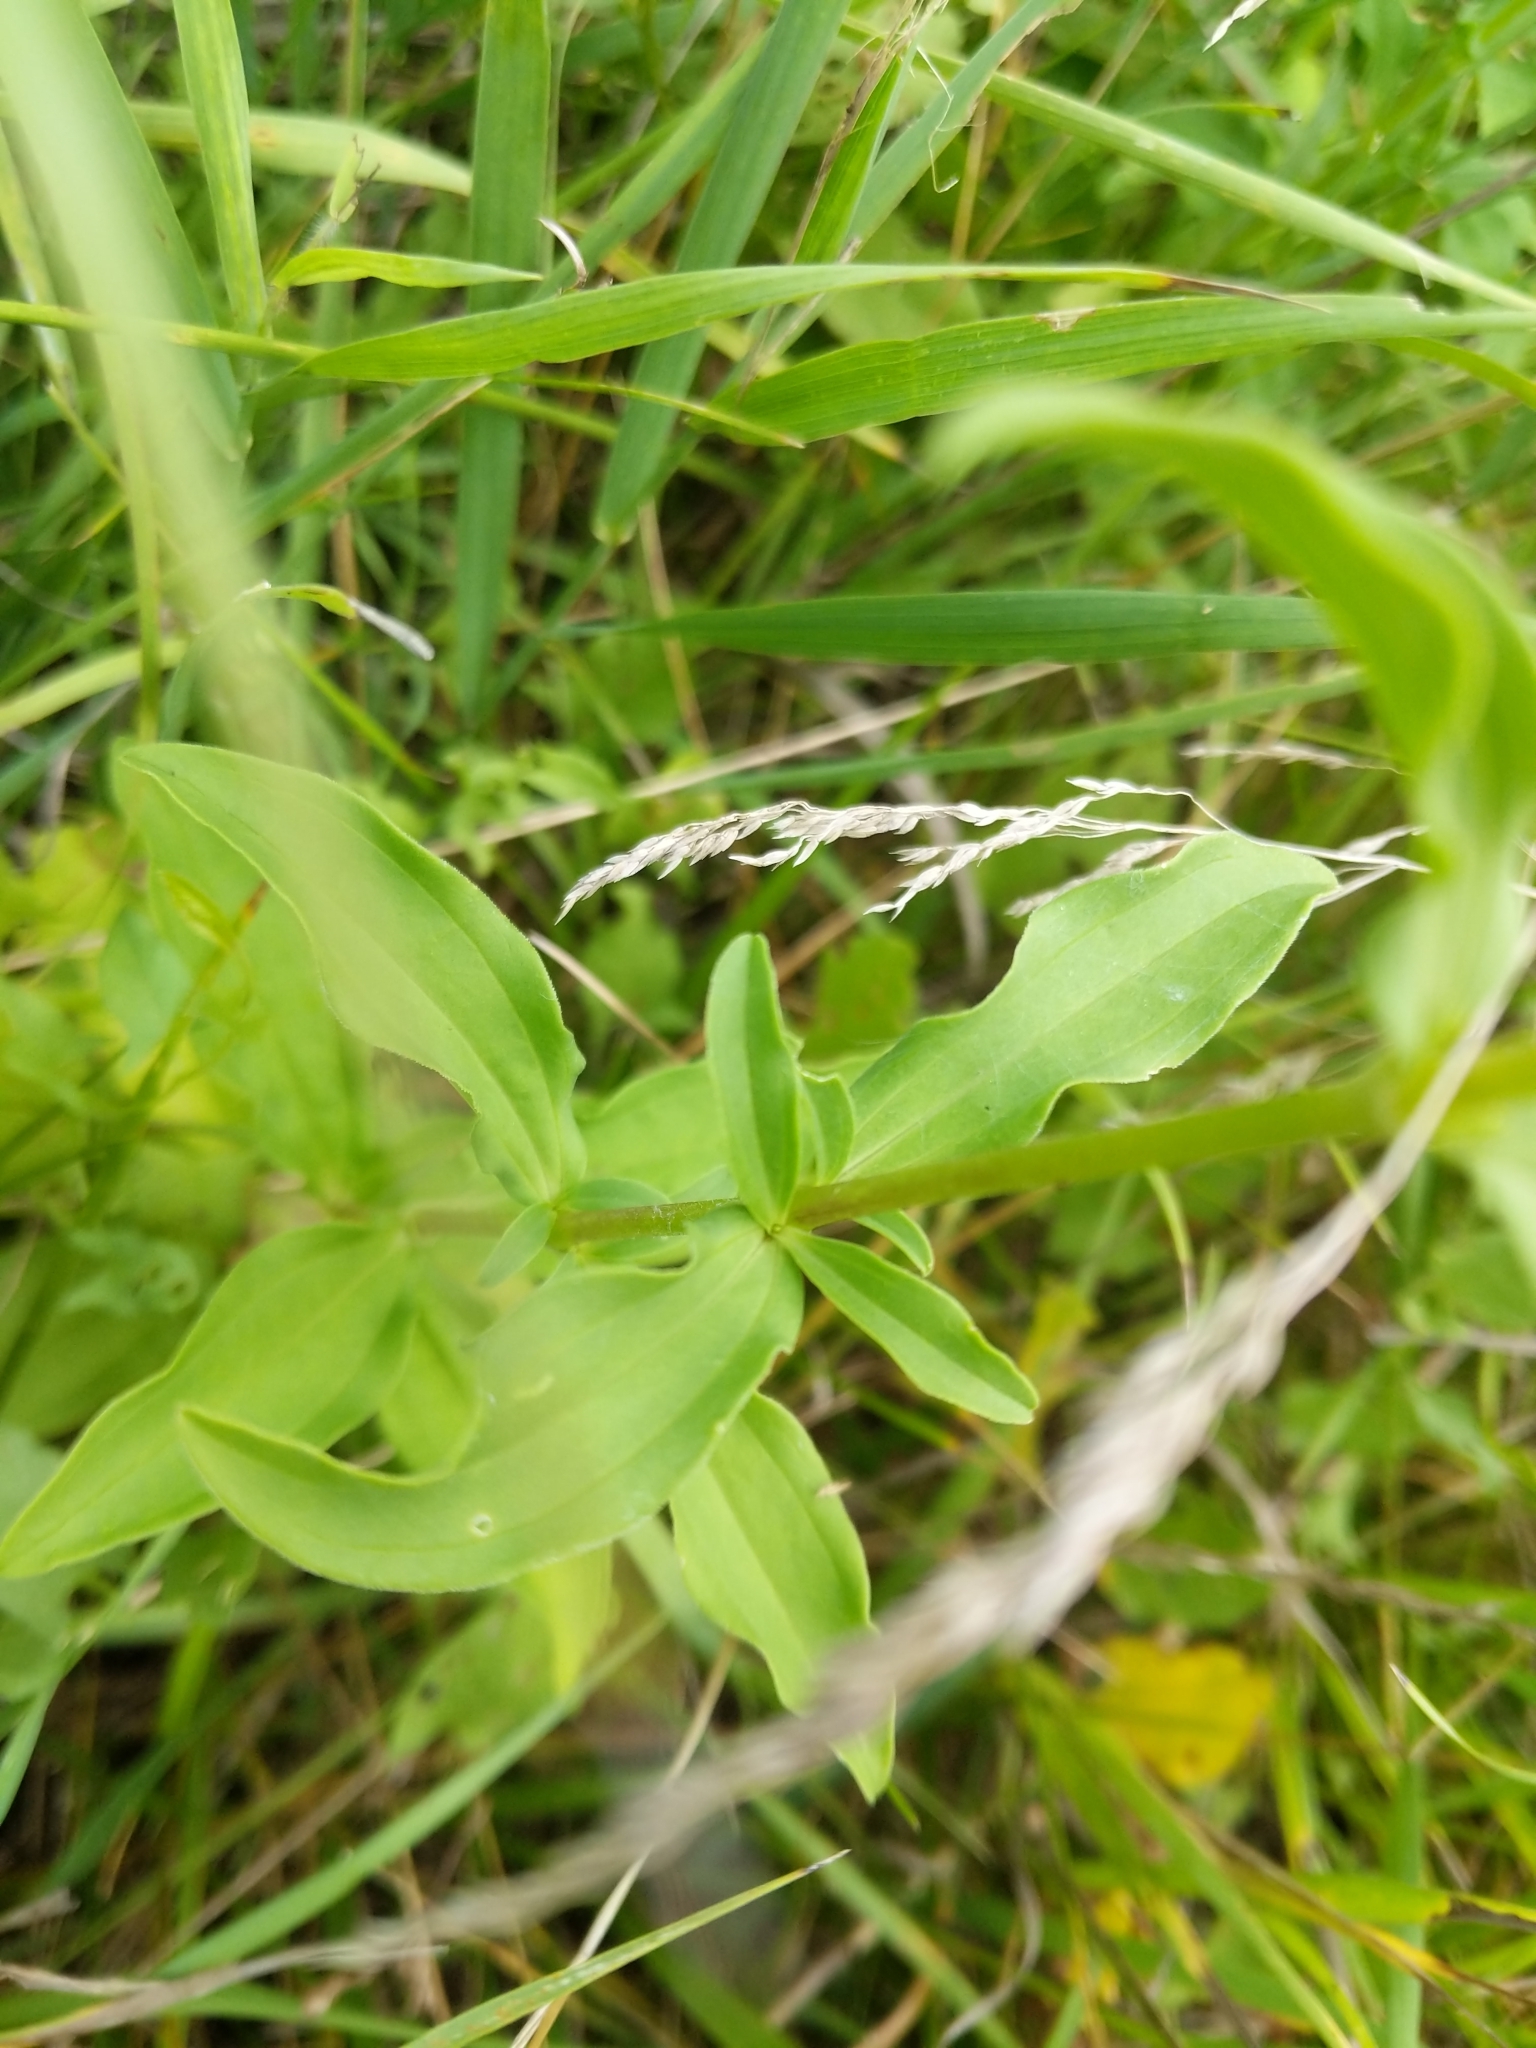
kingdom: Plantae
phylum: Tracheophyta
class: Magnoliopsida
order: Caryophyllales
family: Caryophyllaceae
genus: Saponaria
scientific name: Saponaria officinalis
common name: Soapwort
